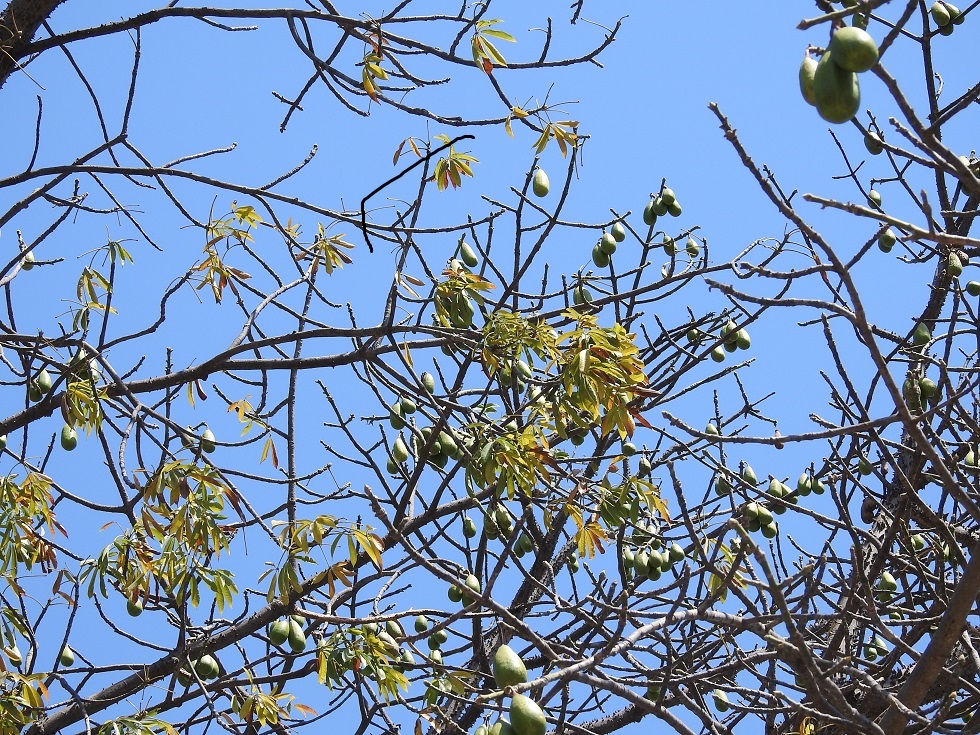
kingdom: Plantae
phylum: Tracheophyta
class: Magnoliopsida
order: Malvales
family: Malvaceae
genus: Ceiba
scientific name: Ceiba aesculifolia
